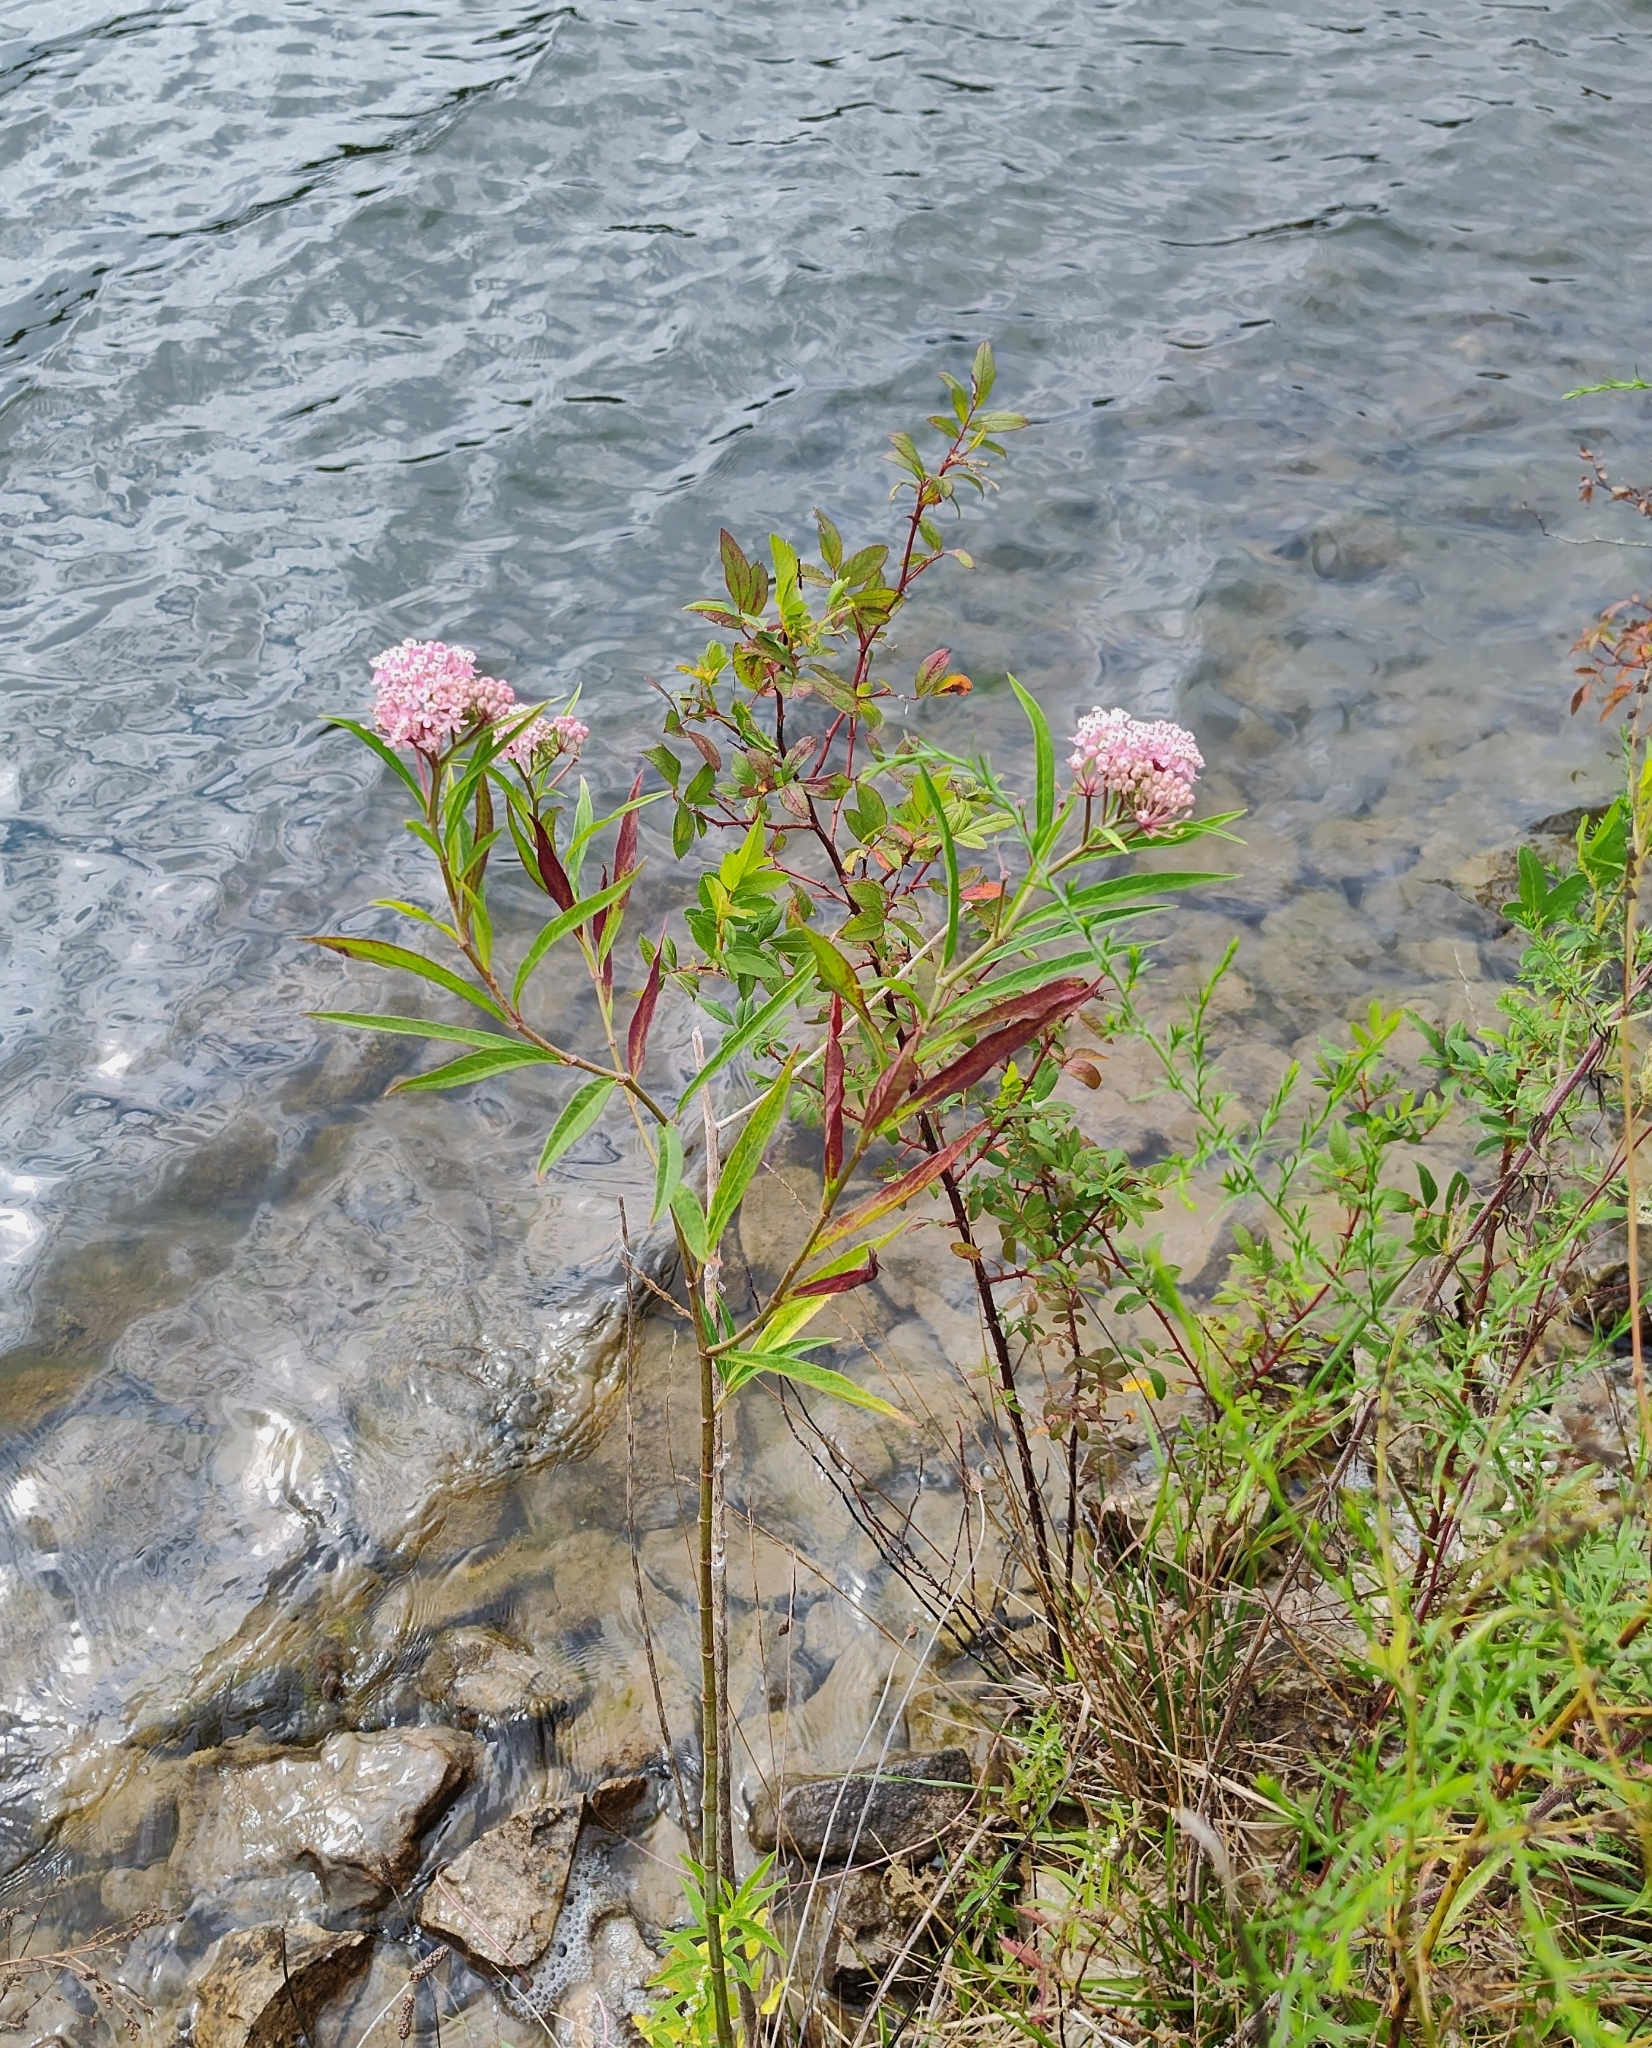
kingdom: Plantae
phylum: Tracheophyta
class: Magnoliopsida
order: Gentianales
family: Apocynaceae
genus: Asclepias
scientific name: Asclepias incarnata
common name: Swamp milkweed
